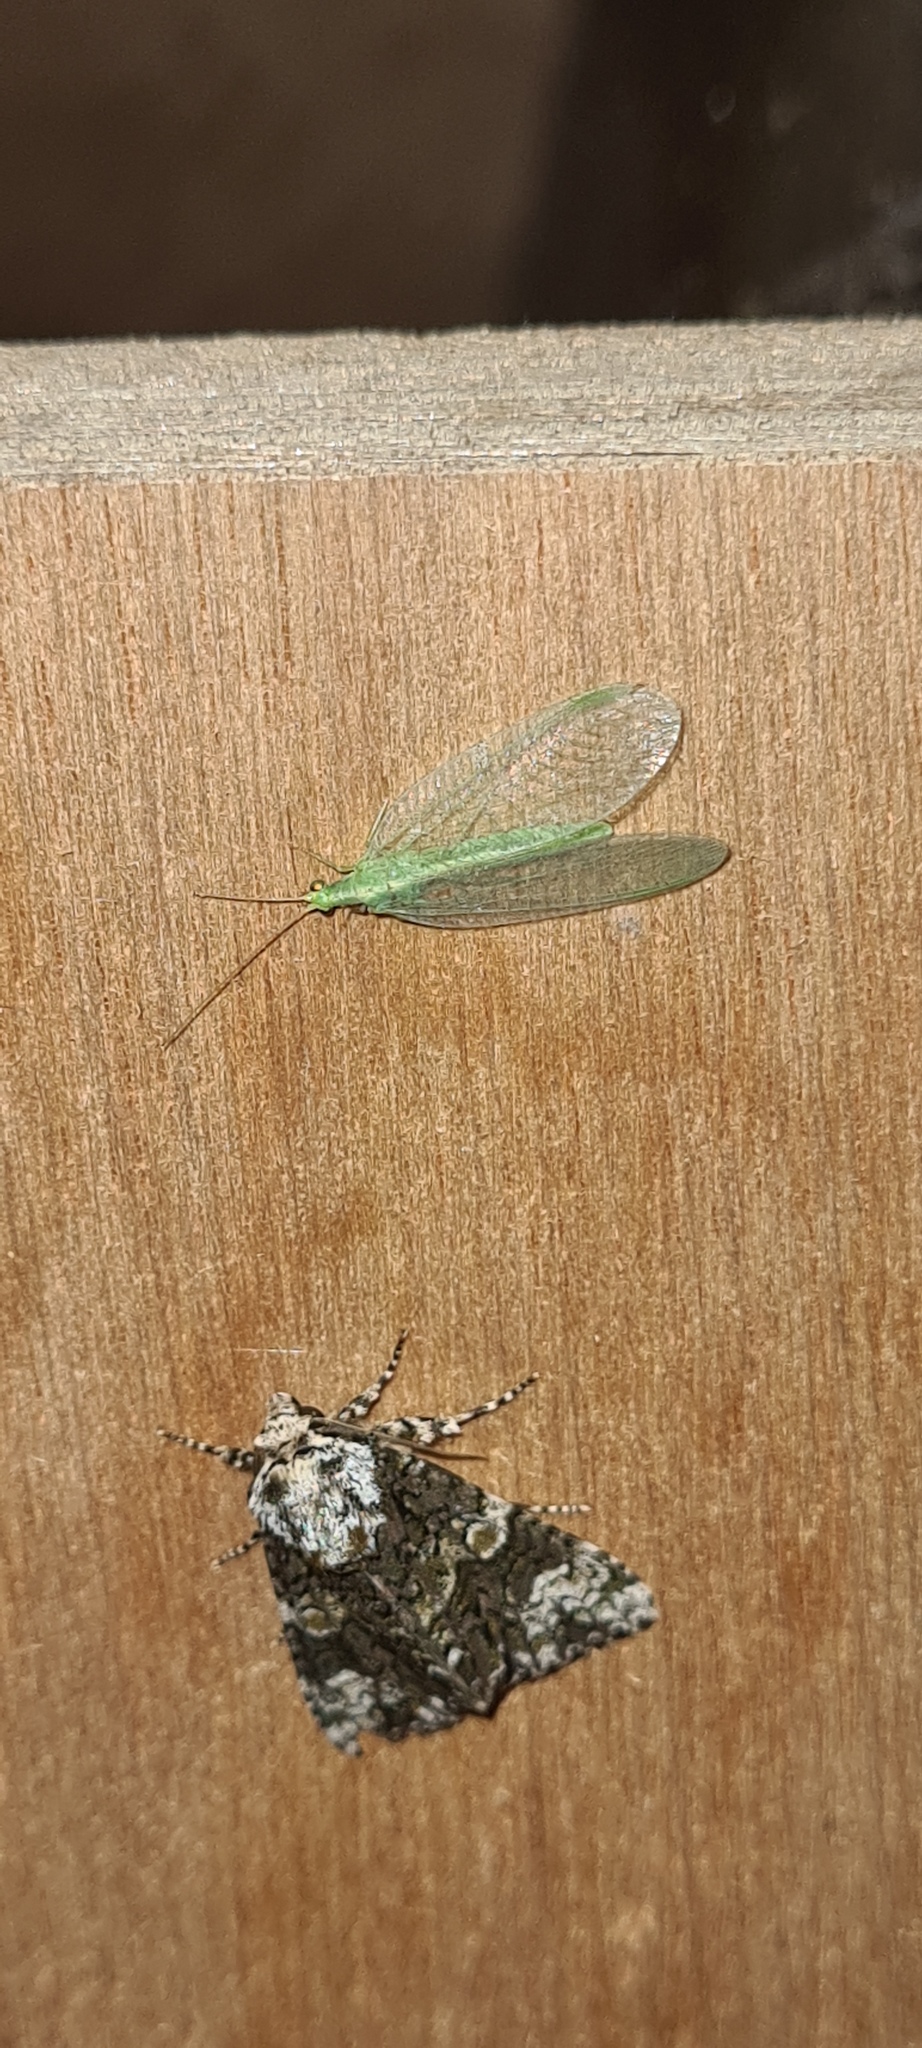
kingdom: Animalia
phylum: Arthropoda
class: Insecta
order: Neuroptera
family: Chrysopidae
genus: Chrysoperla
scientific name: Chrysoperla
